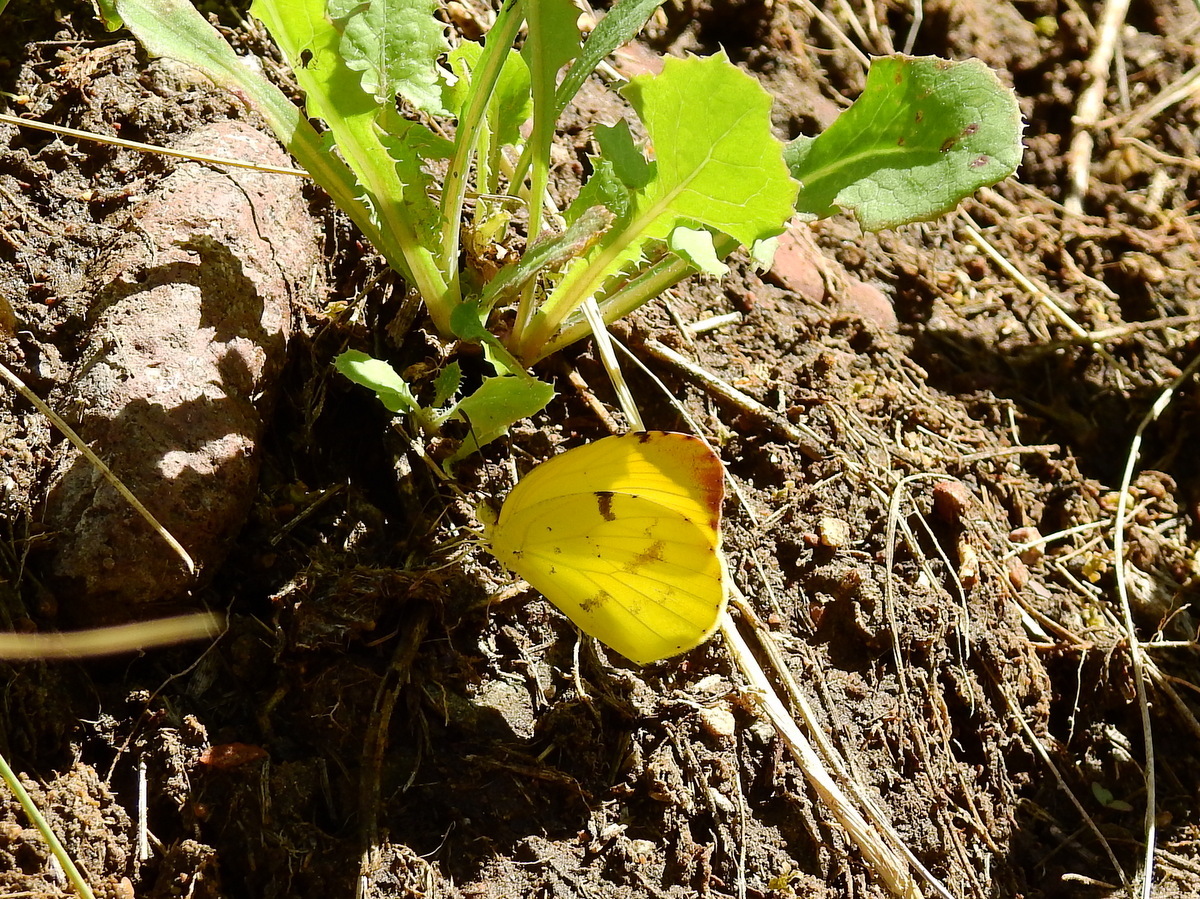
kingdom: Animalia
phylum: Arthropoda
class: Insecta
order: Lepidoptera
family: Pieridae
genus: Teriocolias
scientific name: Teriocolias
